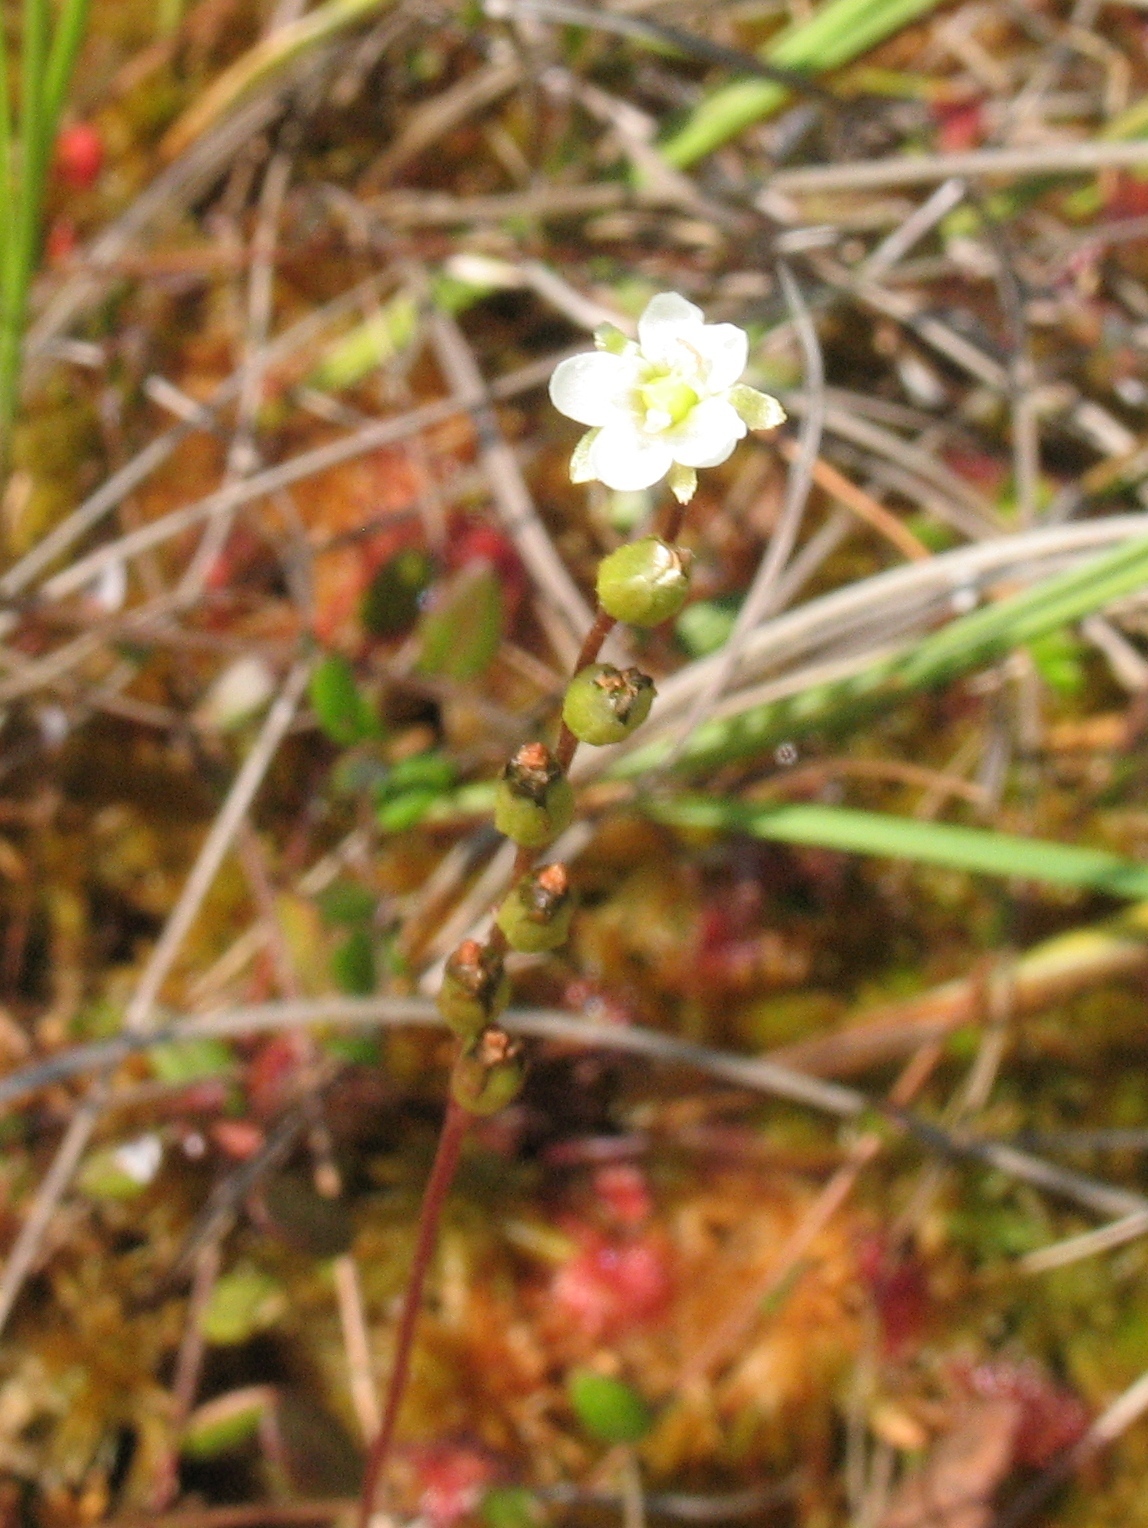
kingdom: Plantae
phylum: Tracheophyta
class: Magnoliopsida
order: Caryophyllales
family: Droseraceae
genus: Drosera
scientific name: Drosera rotundifolia
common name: Round-leaved sundew
